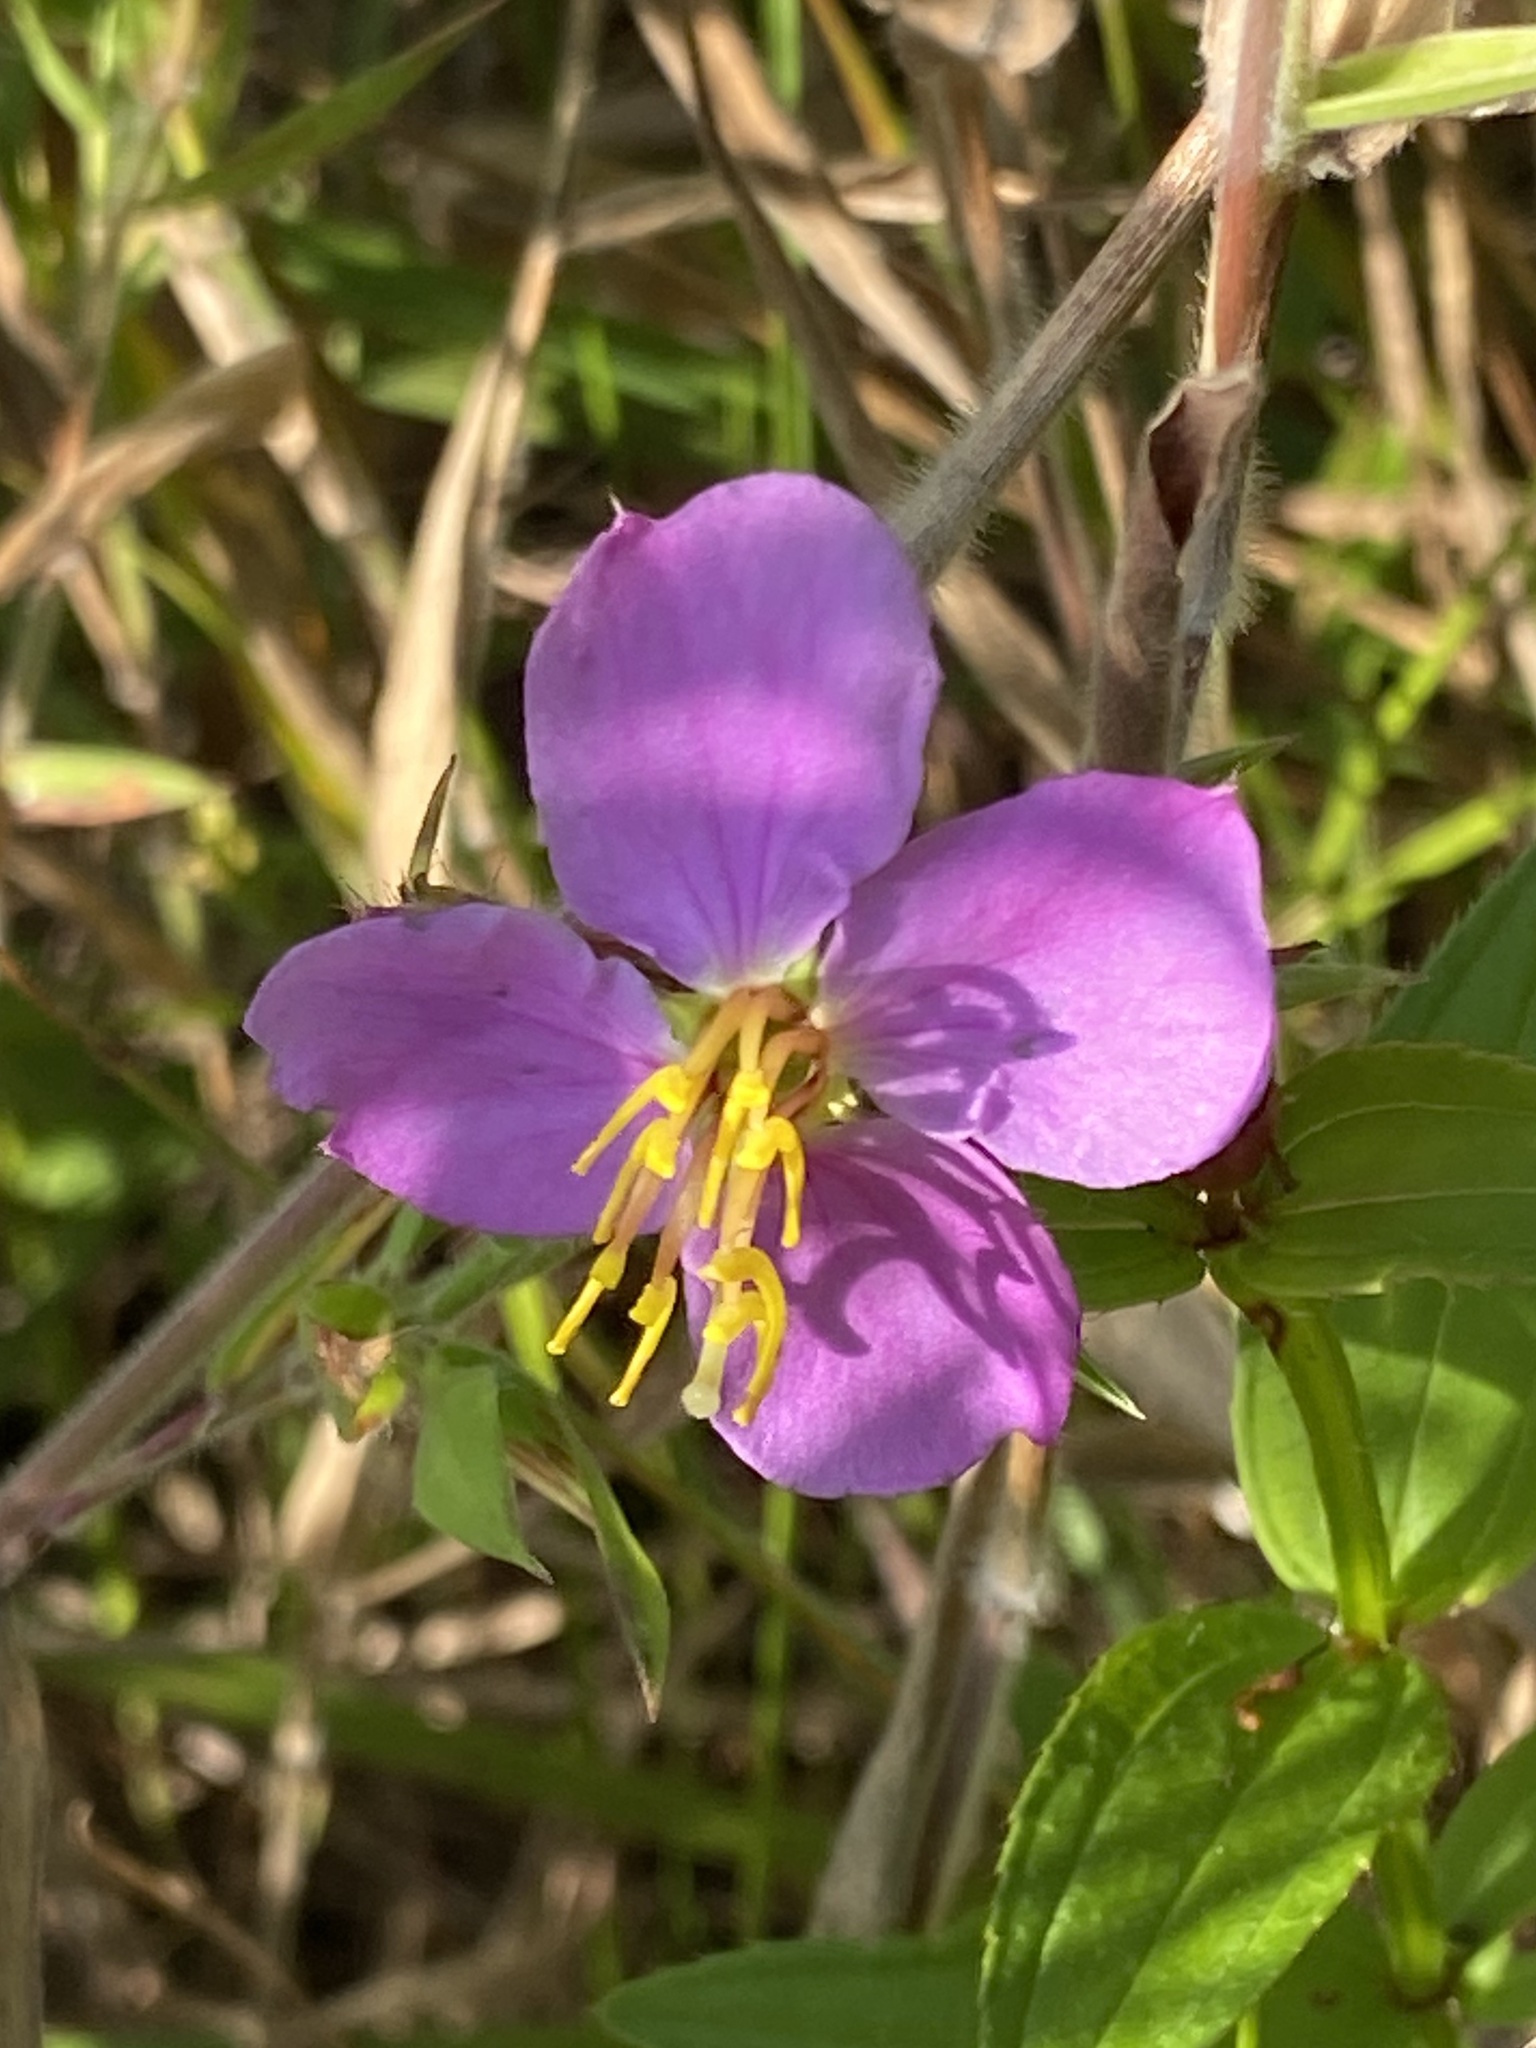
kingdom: Plantae
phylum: Tracheophyta
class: Magnoliopsida
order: Myrtales
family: Melastomataceae
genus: Rhexia
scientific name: Rhexia virginica
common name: Common meadow beauty
